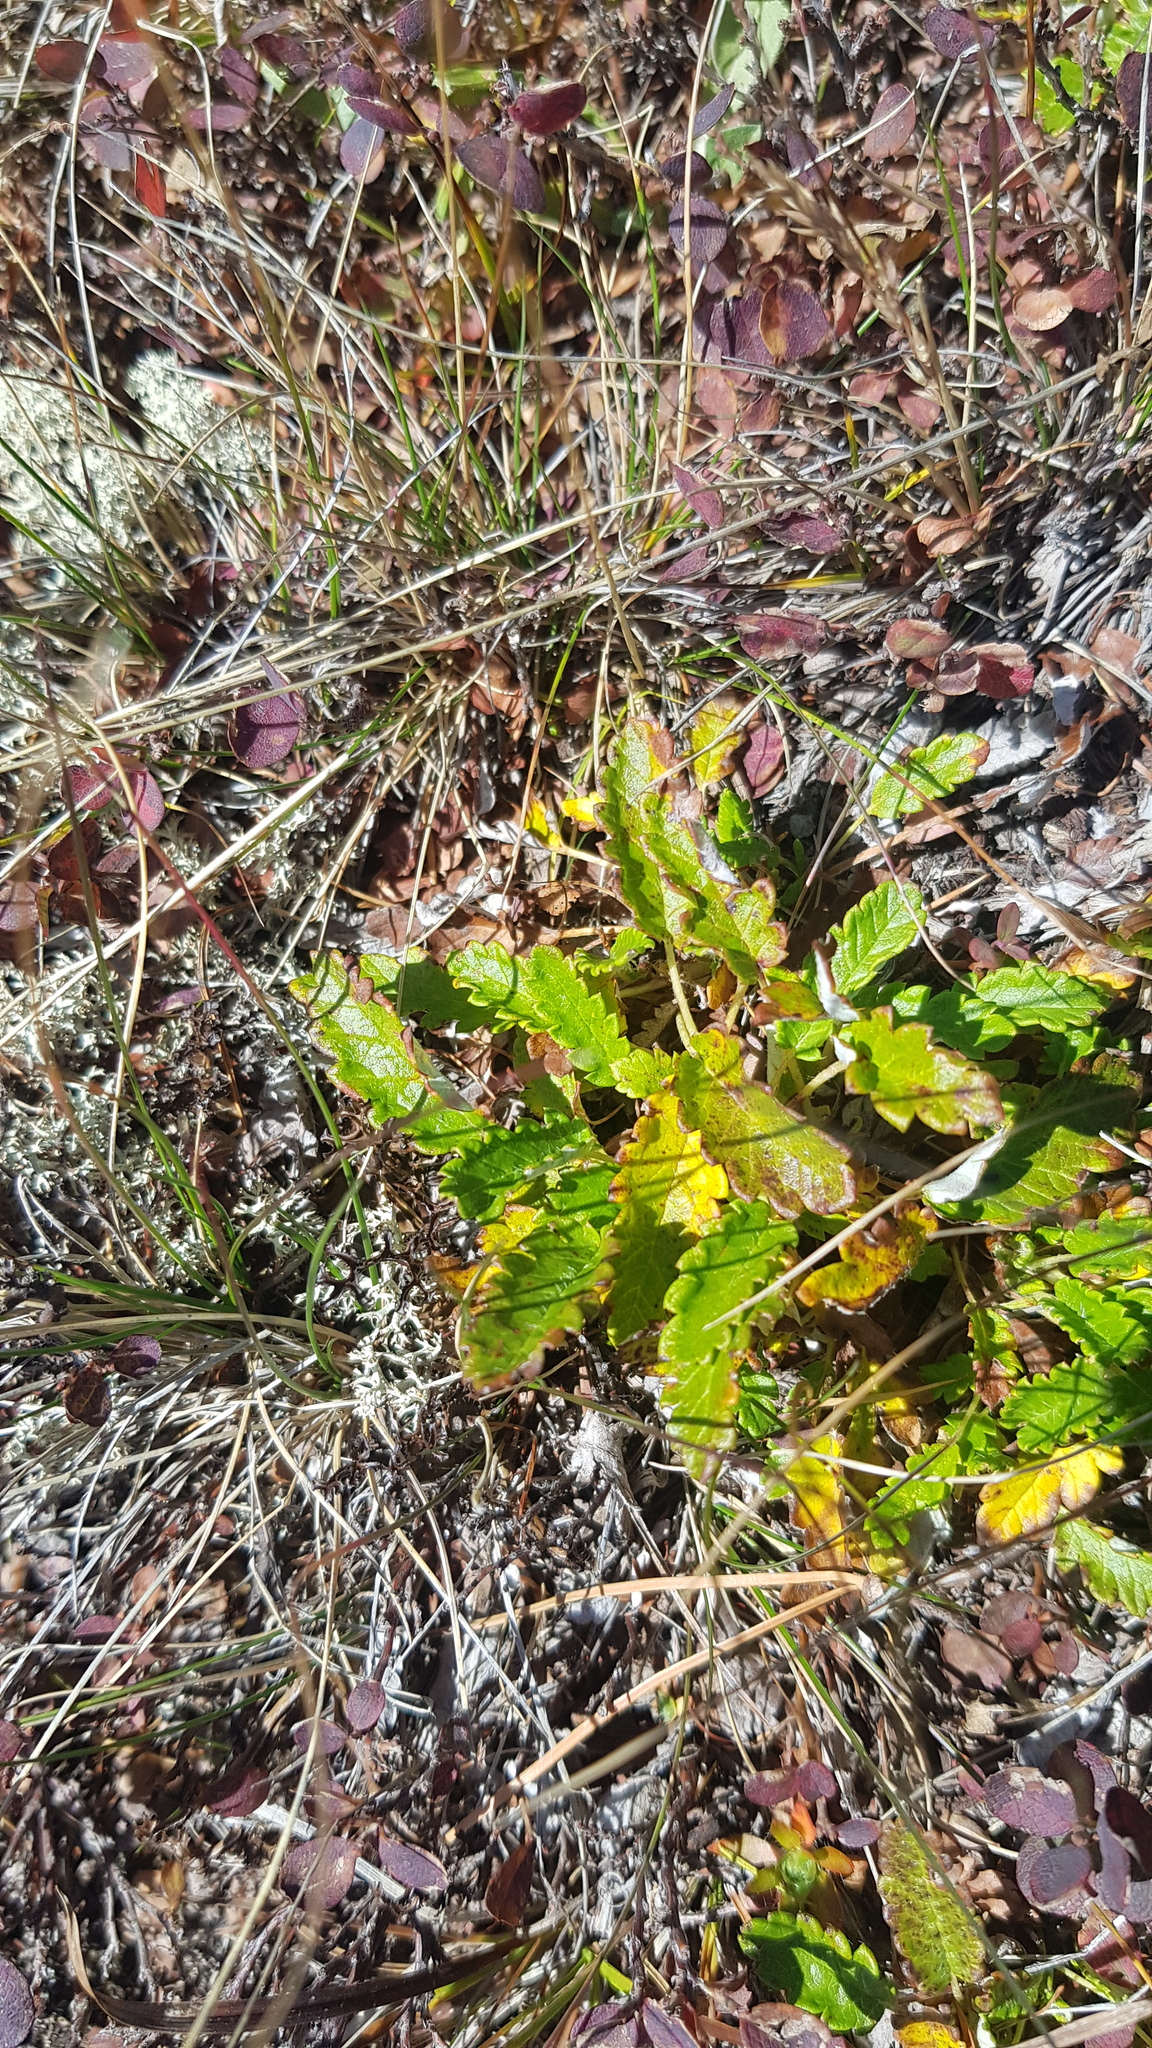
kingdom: Plantae
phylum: Tracheophyta
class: Magnoliopsida
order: Rosales
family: Rosaceae
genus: Dryas
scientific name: Dryas octopetala
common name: Eight-petal mountain-avens
